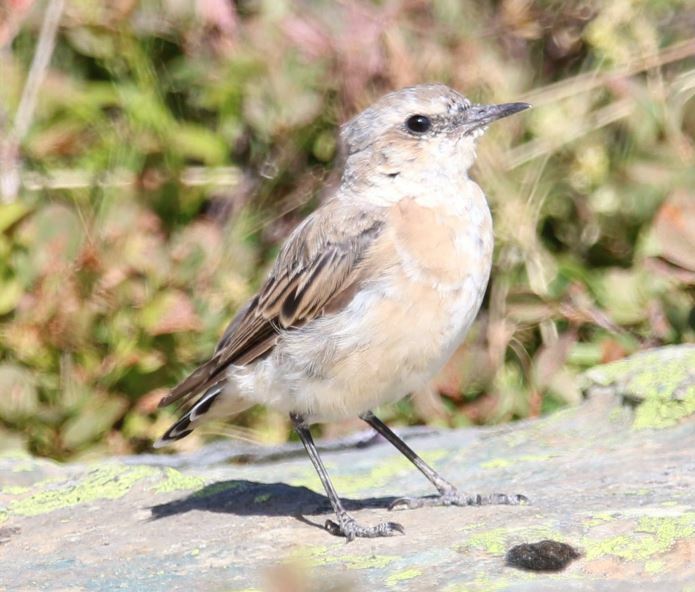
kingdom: Animalia
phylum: Chordata
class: Aves
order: Passeriformes
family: Muscicapidae
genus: Oenanthe
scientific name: Oenanthe oenanthe
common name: Northern wheatear
